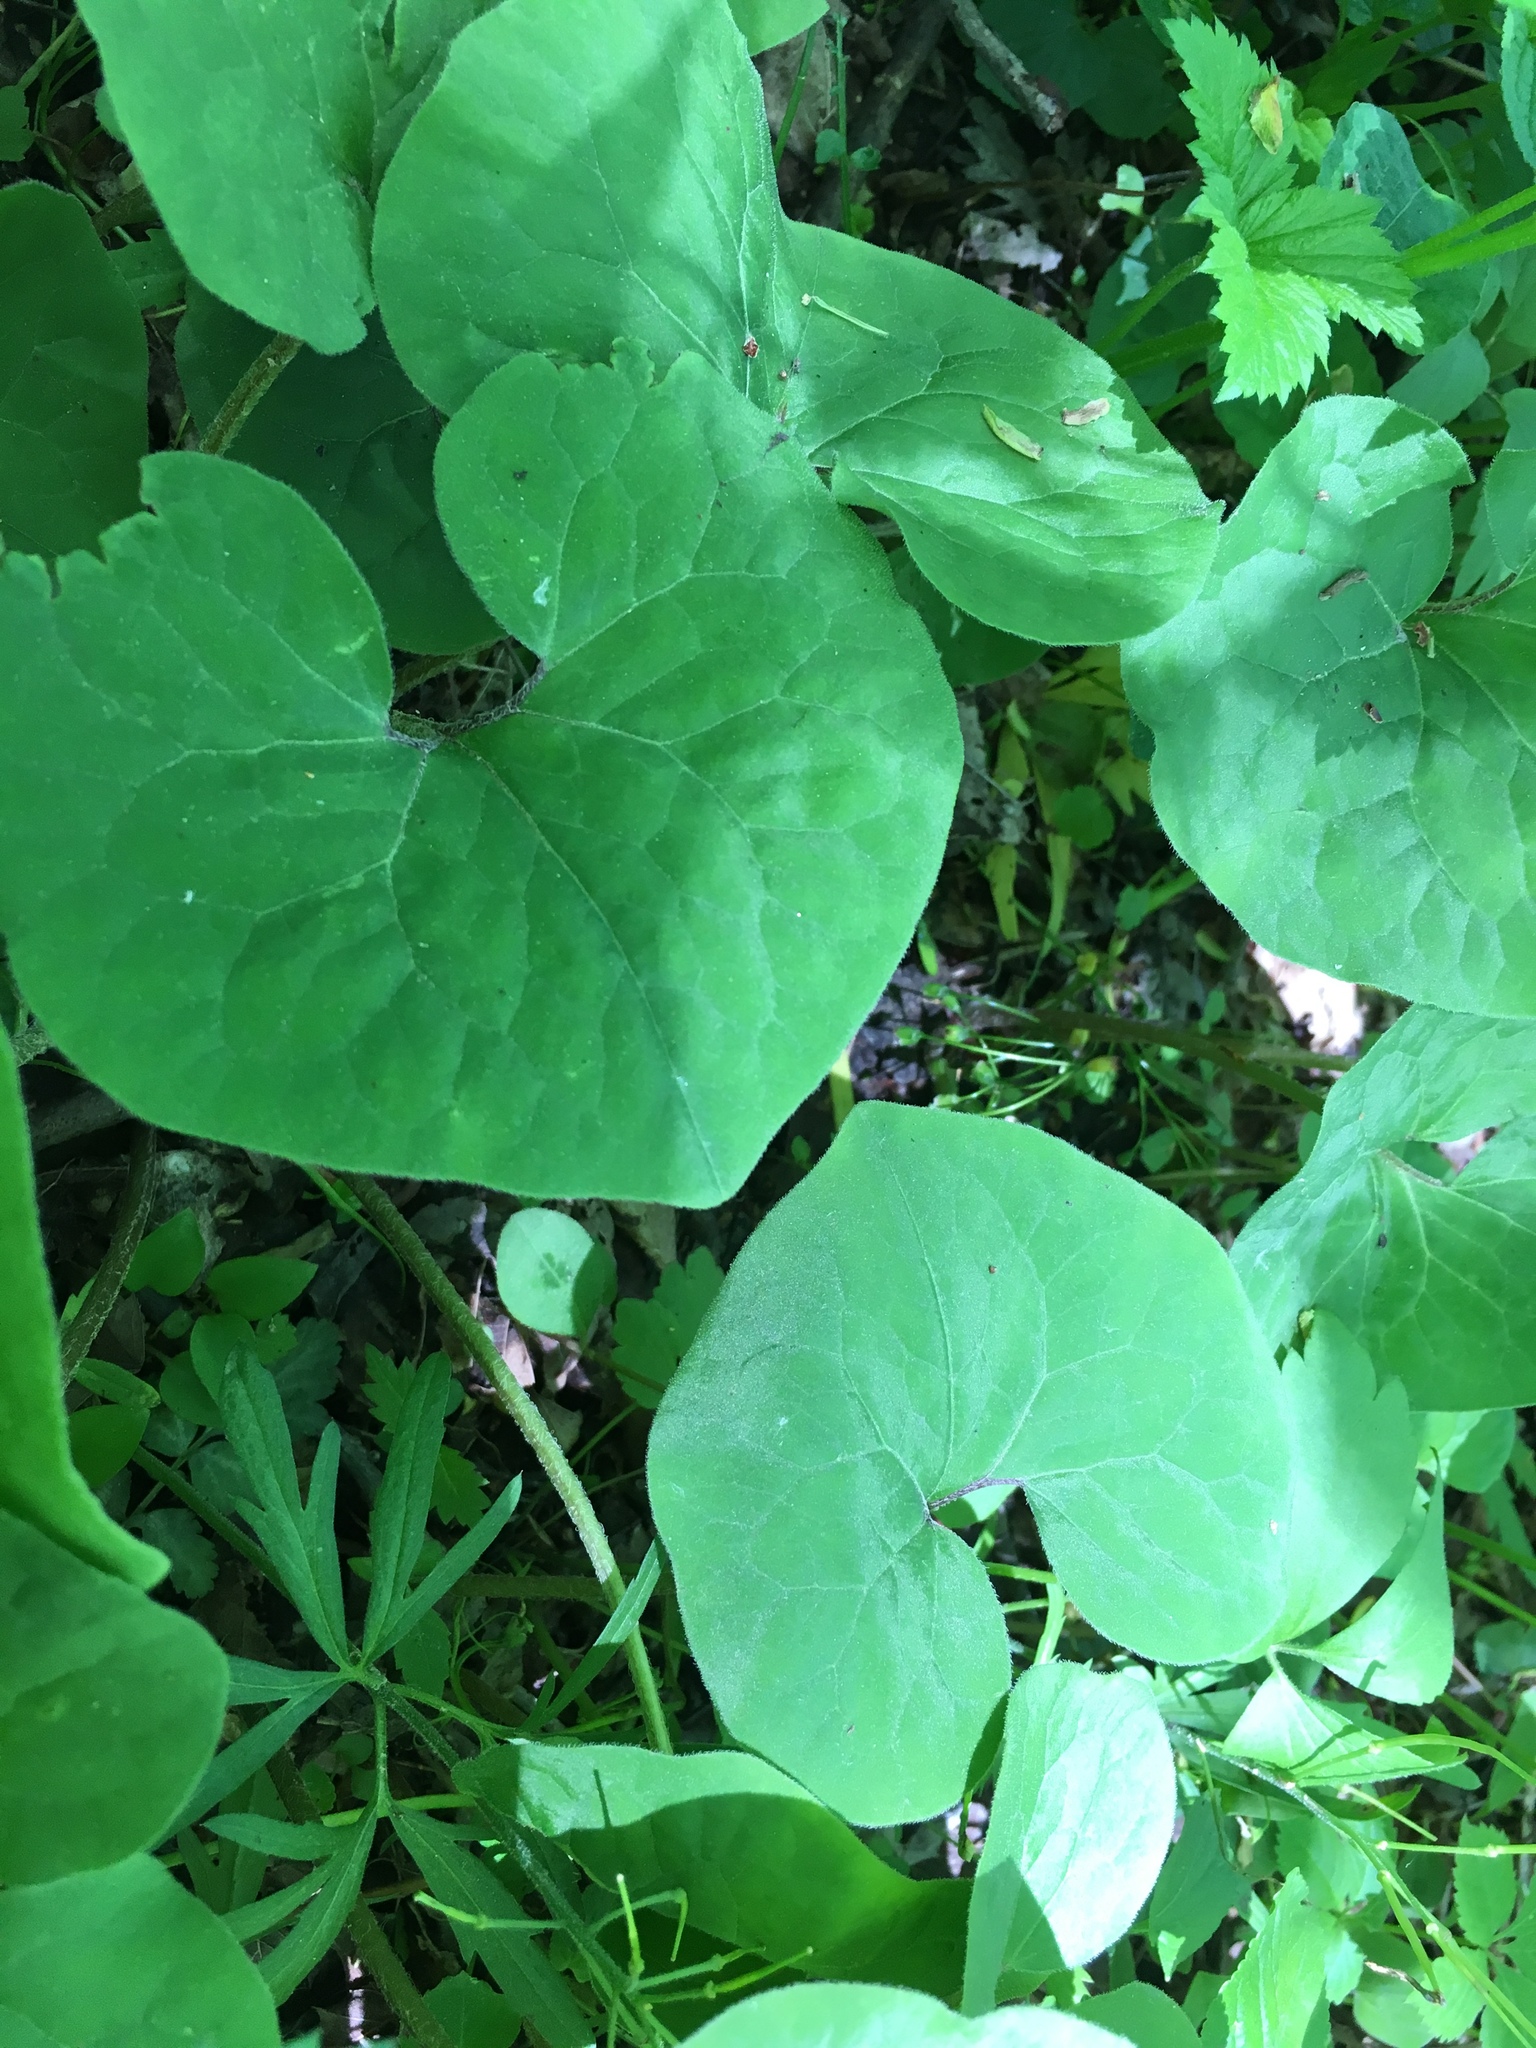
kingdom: Plantae
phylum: Tracheophyta
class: Magnoliopsida
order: Piperales
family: Aristolochiaceae
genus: Asarum
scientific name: Asarum canadense
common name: Wild ginger
